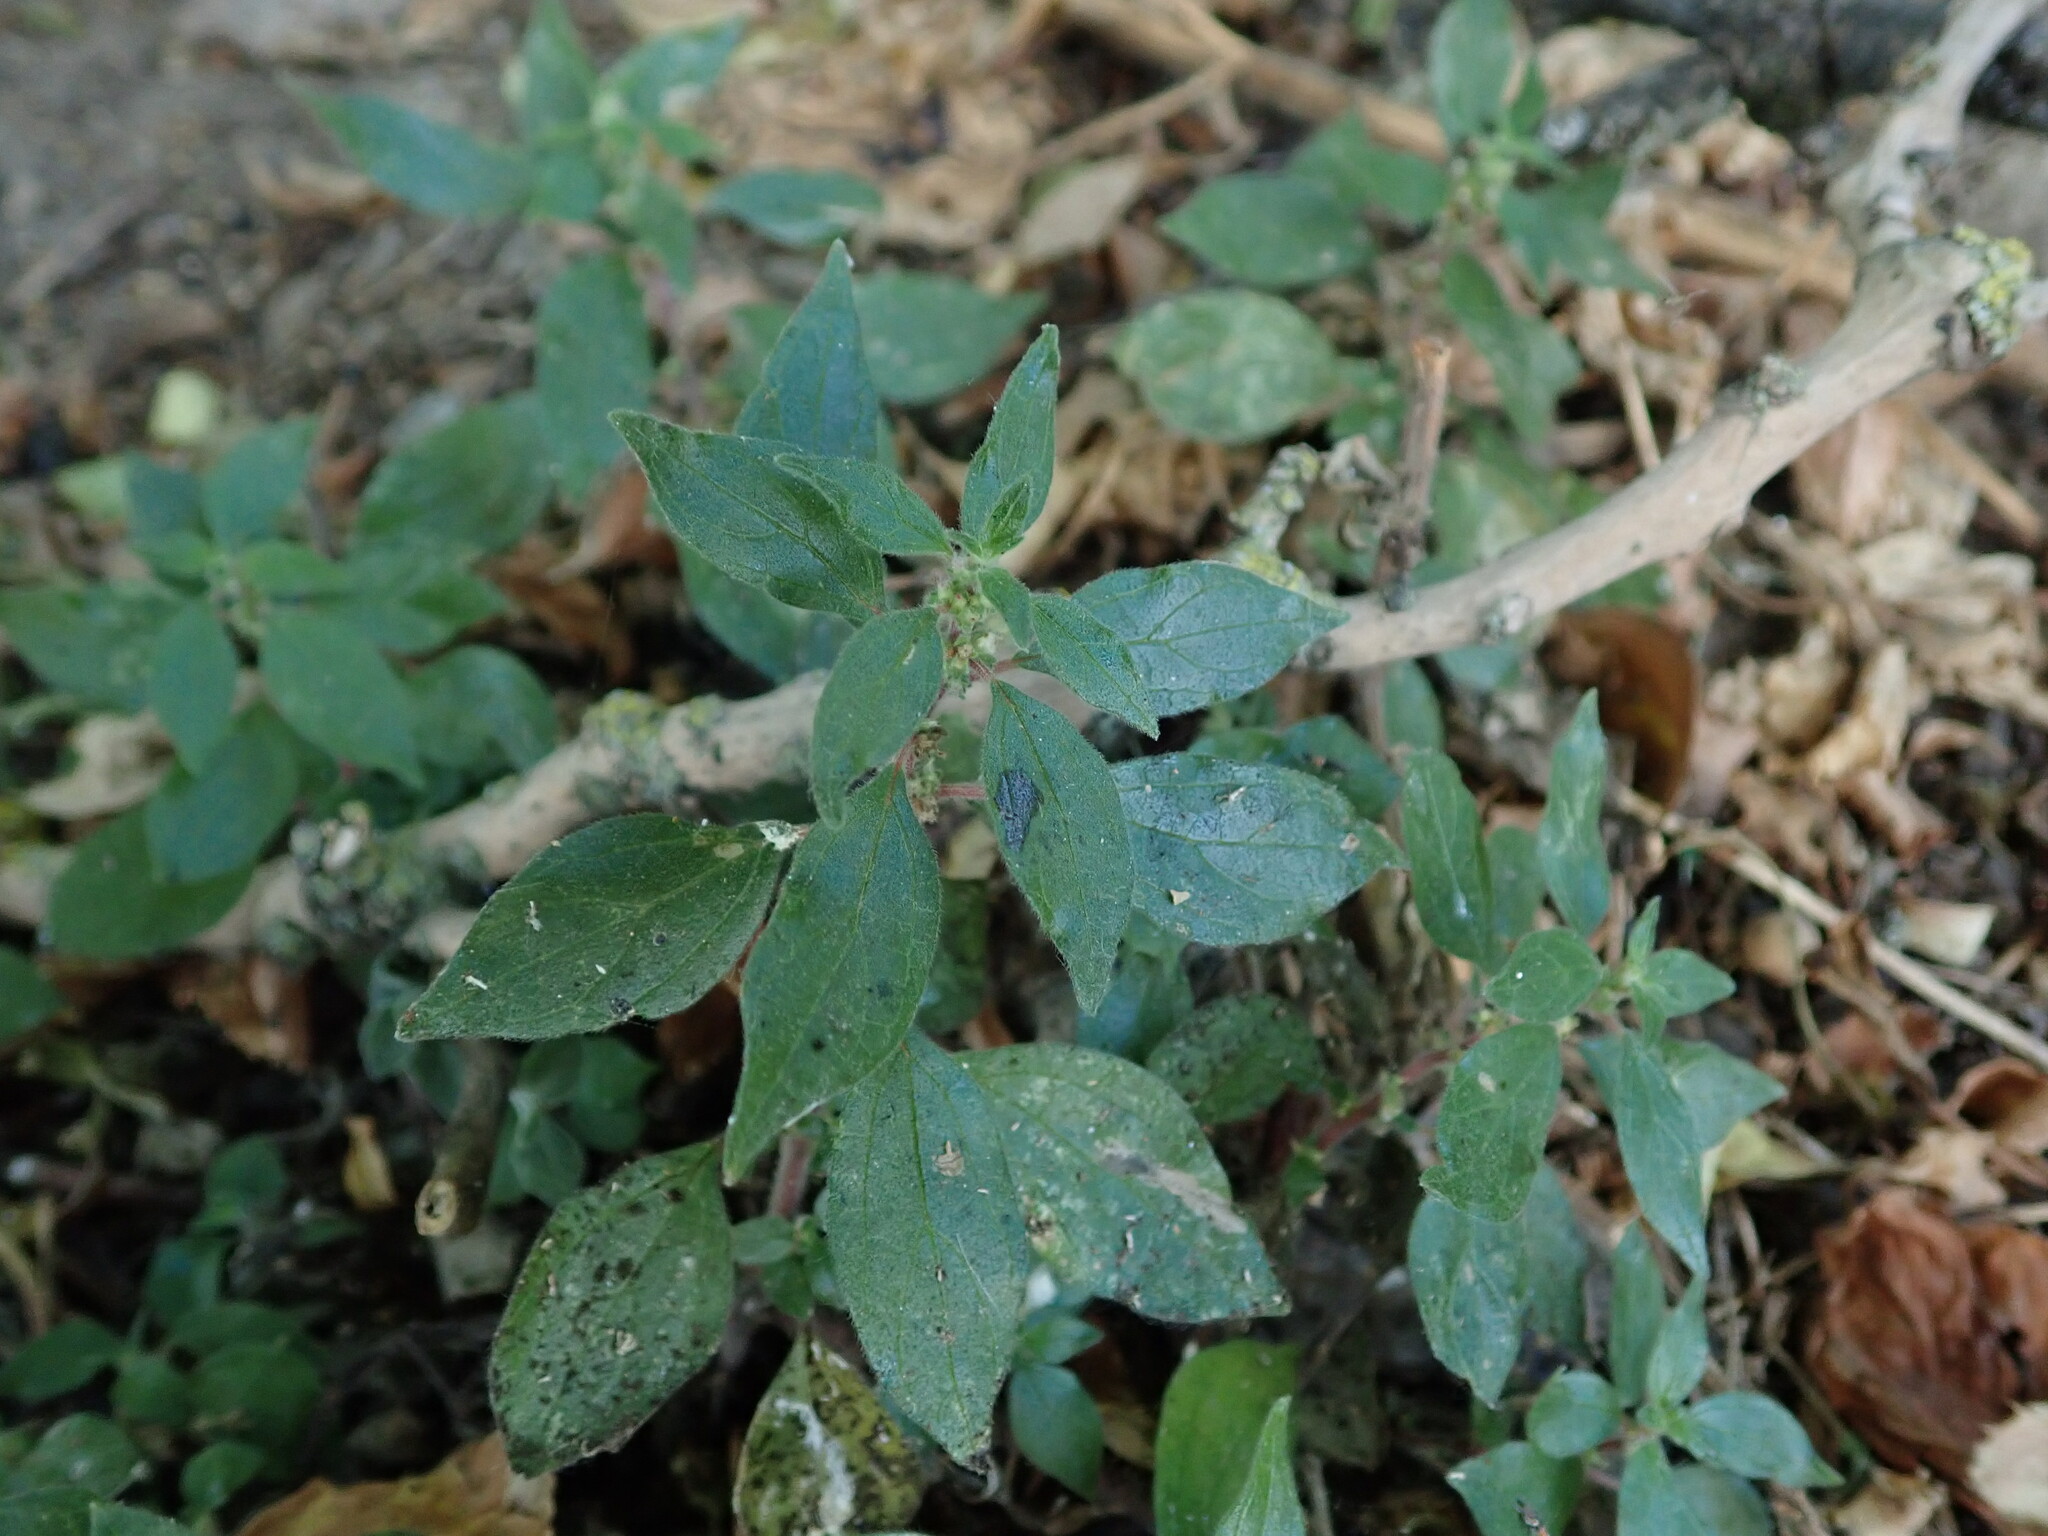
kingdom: Plantae
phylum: Tracheophyta
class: Magnoliopsida
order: Rosales
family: Urticaceae
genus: Parietaria
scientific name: Parietaria judaica
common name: Pellitory-of-the-wall
